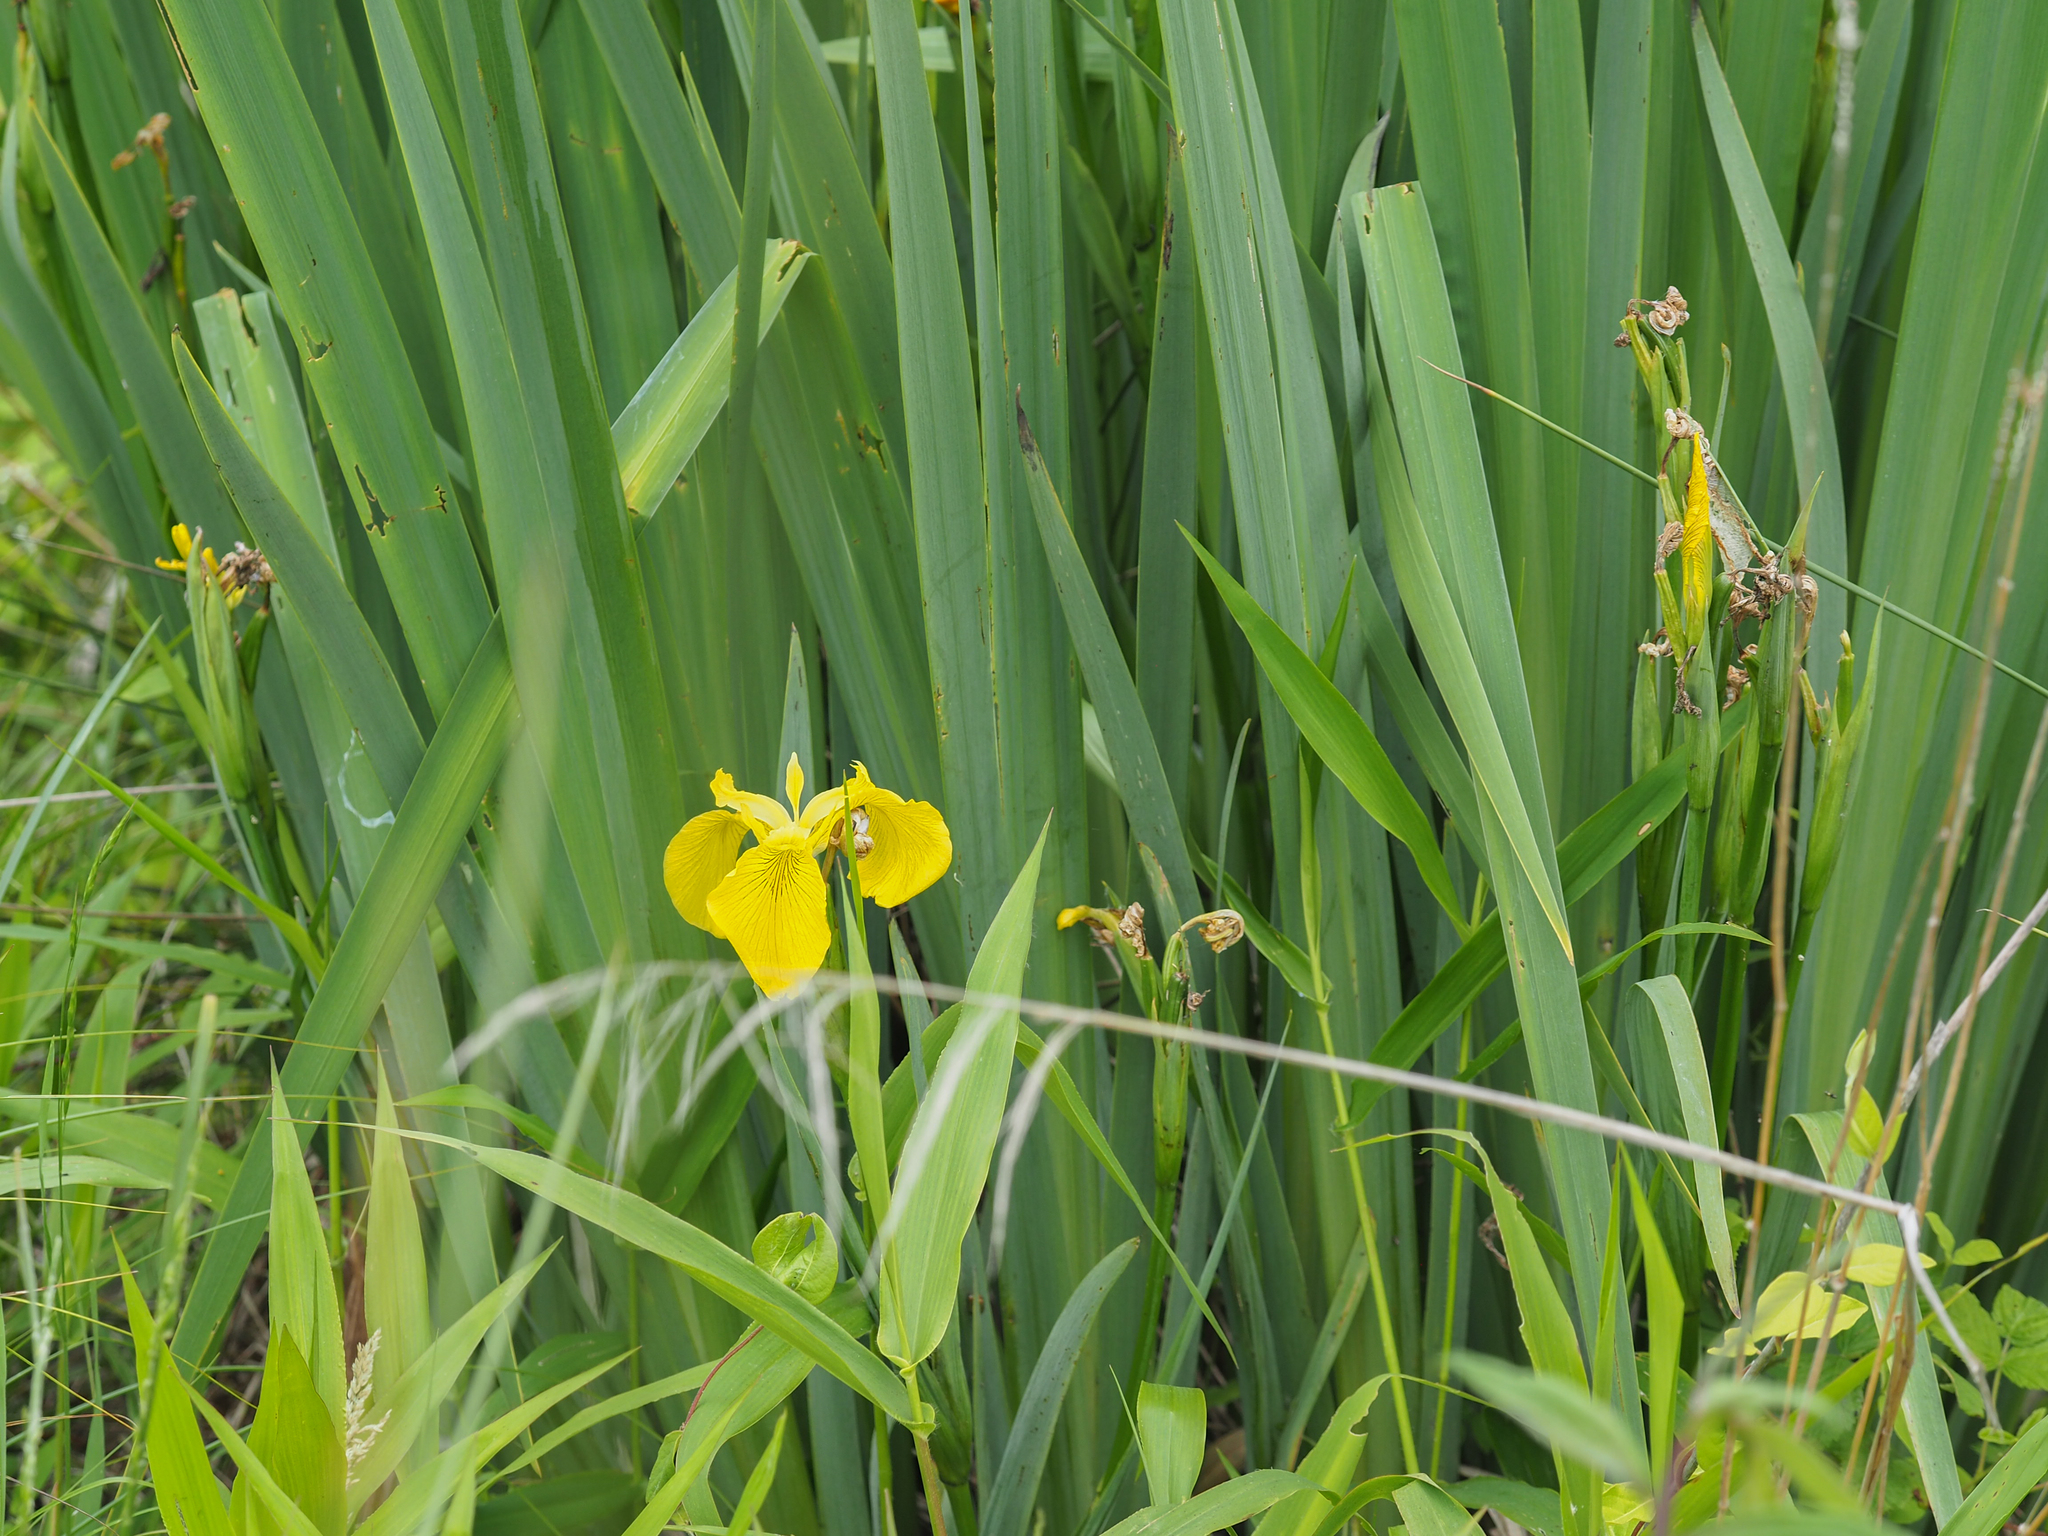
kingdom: Plantae
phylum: Tracheophyta
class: Liliopsida
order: Asparagales
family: Iridaceae
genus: Iris
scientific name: Iris pseudacorus
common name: Yellow flag
